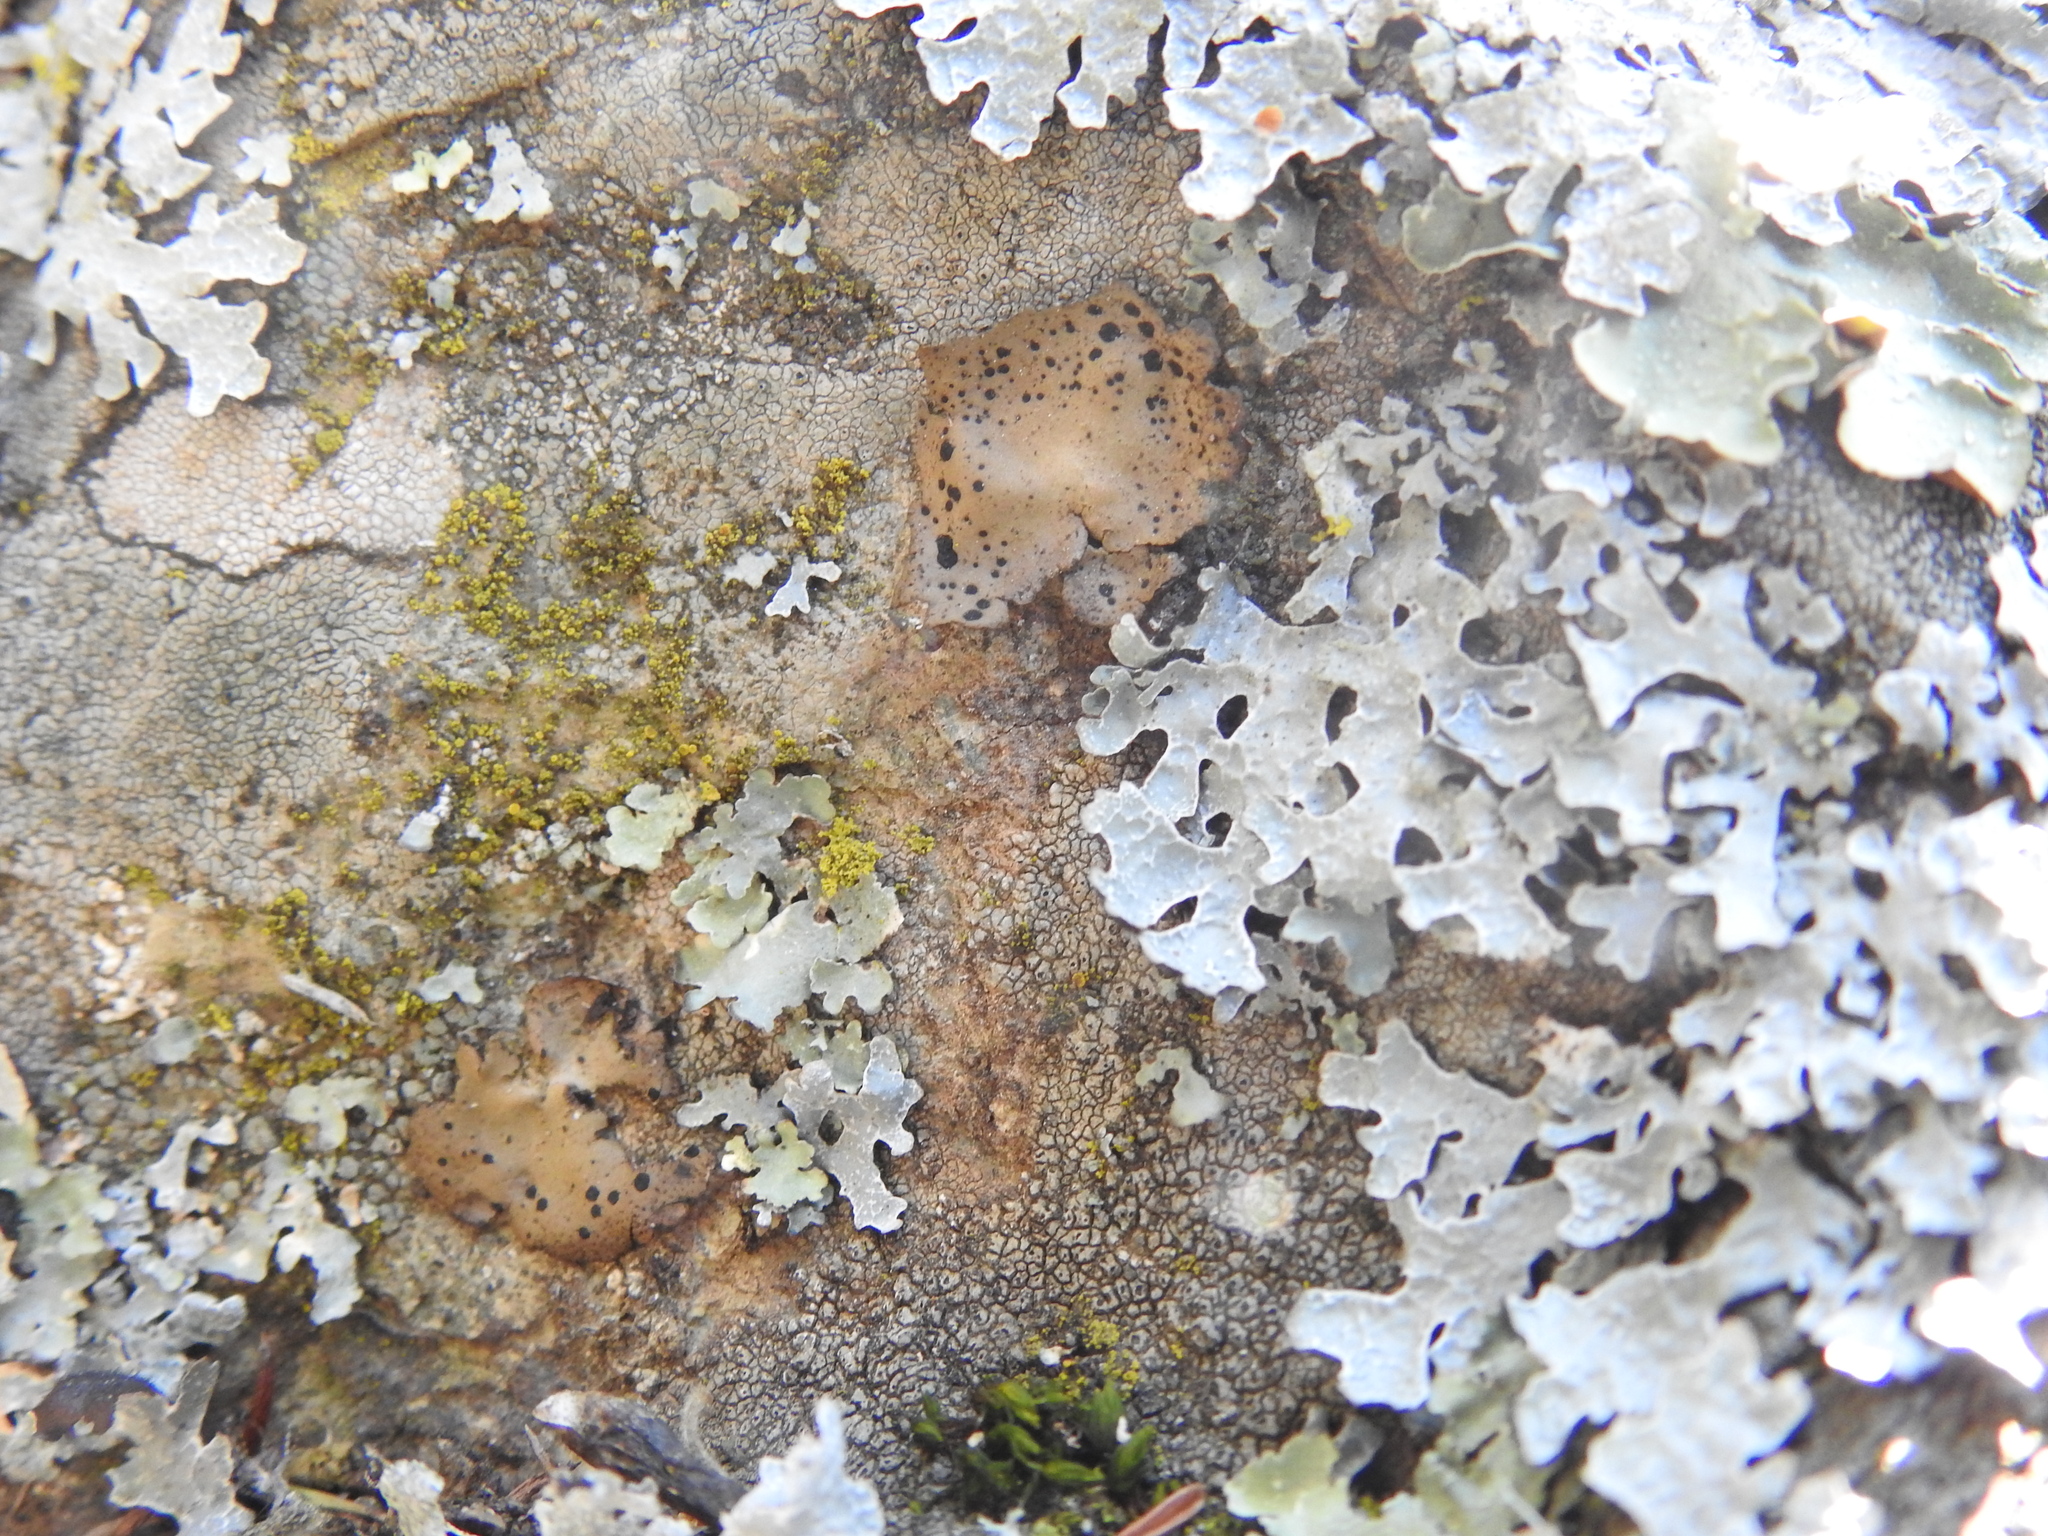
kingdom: Fungi
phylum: Ascomycota
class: Lecanoromycetes
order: Umbilicariales
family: Umbilicariaceae
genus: Umbilicaria
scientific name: Umbilicaria phaea
